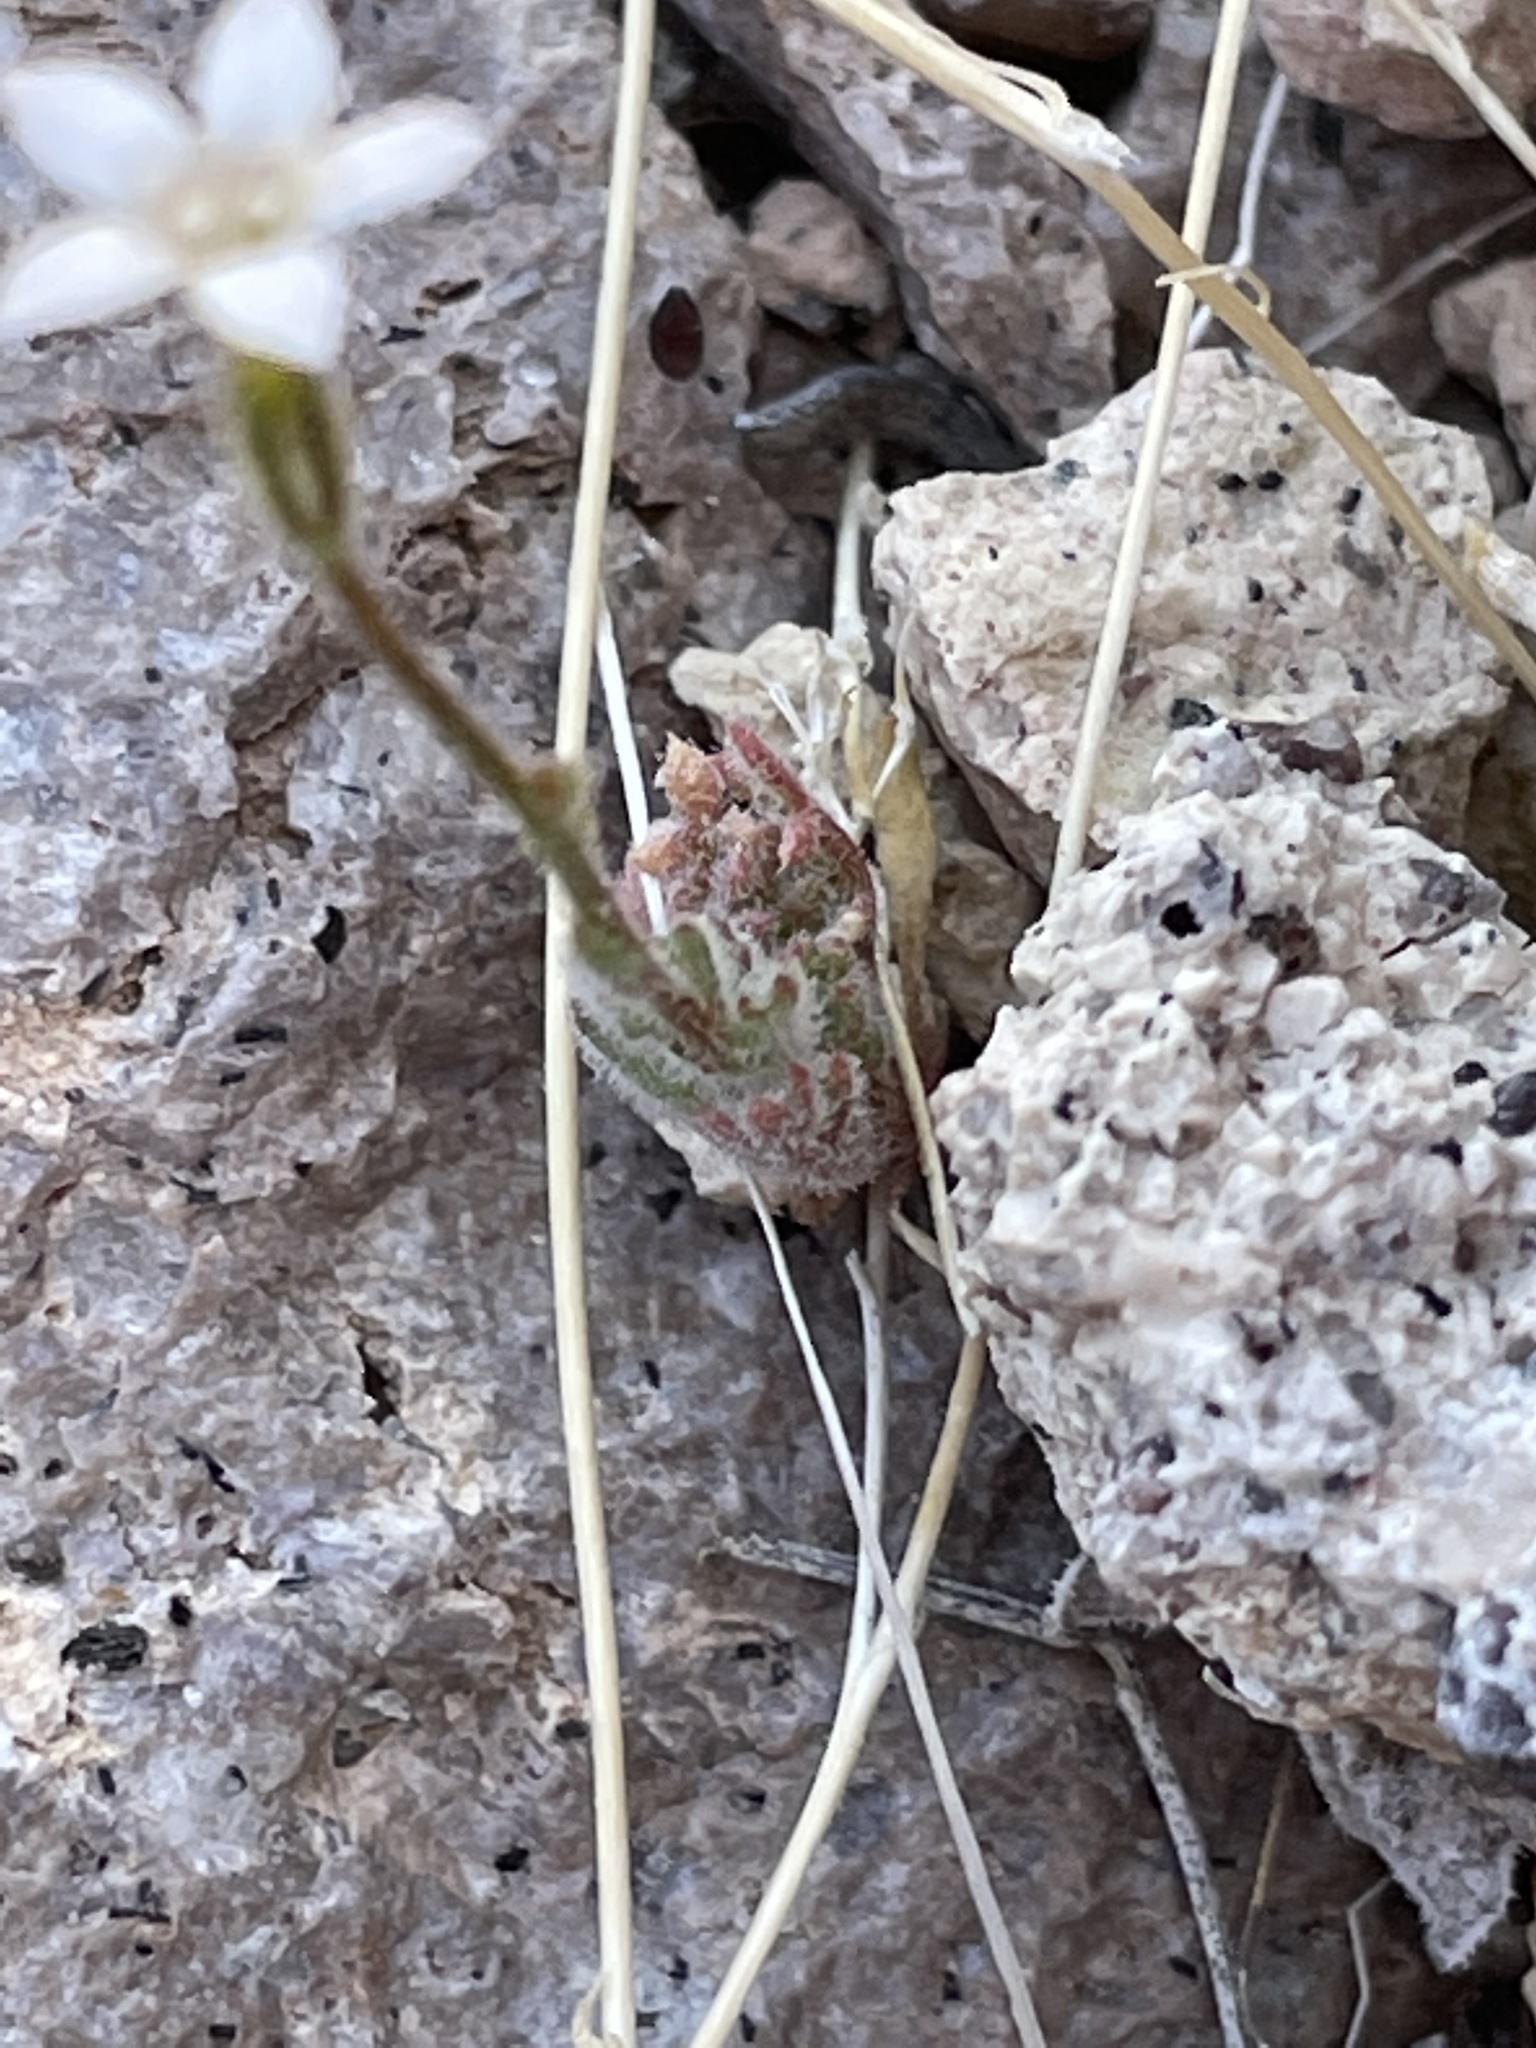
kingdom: Plantae
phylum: Tracheophyta
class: Magnoliopsida
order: Ericales
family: Polemoniaceae
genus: Gilia
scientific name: Gilia stellata
